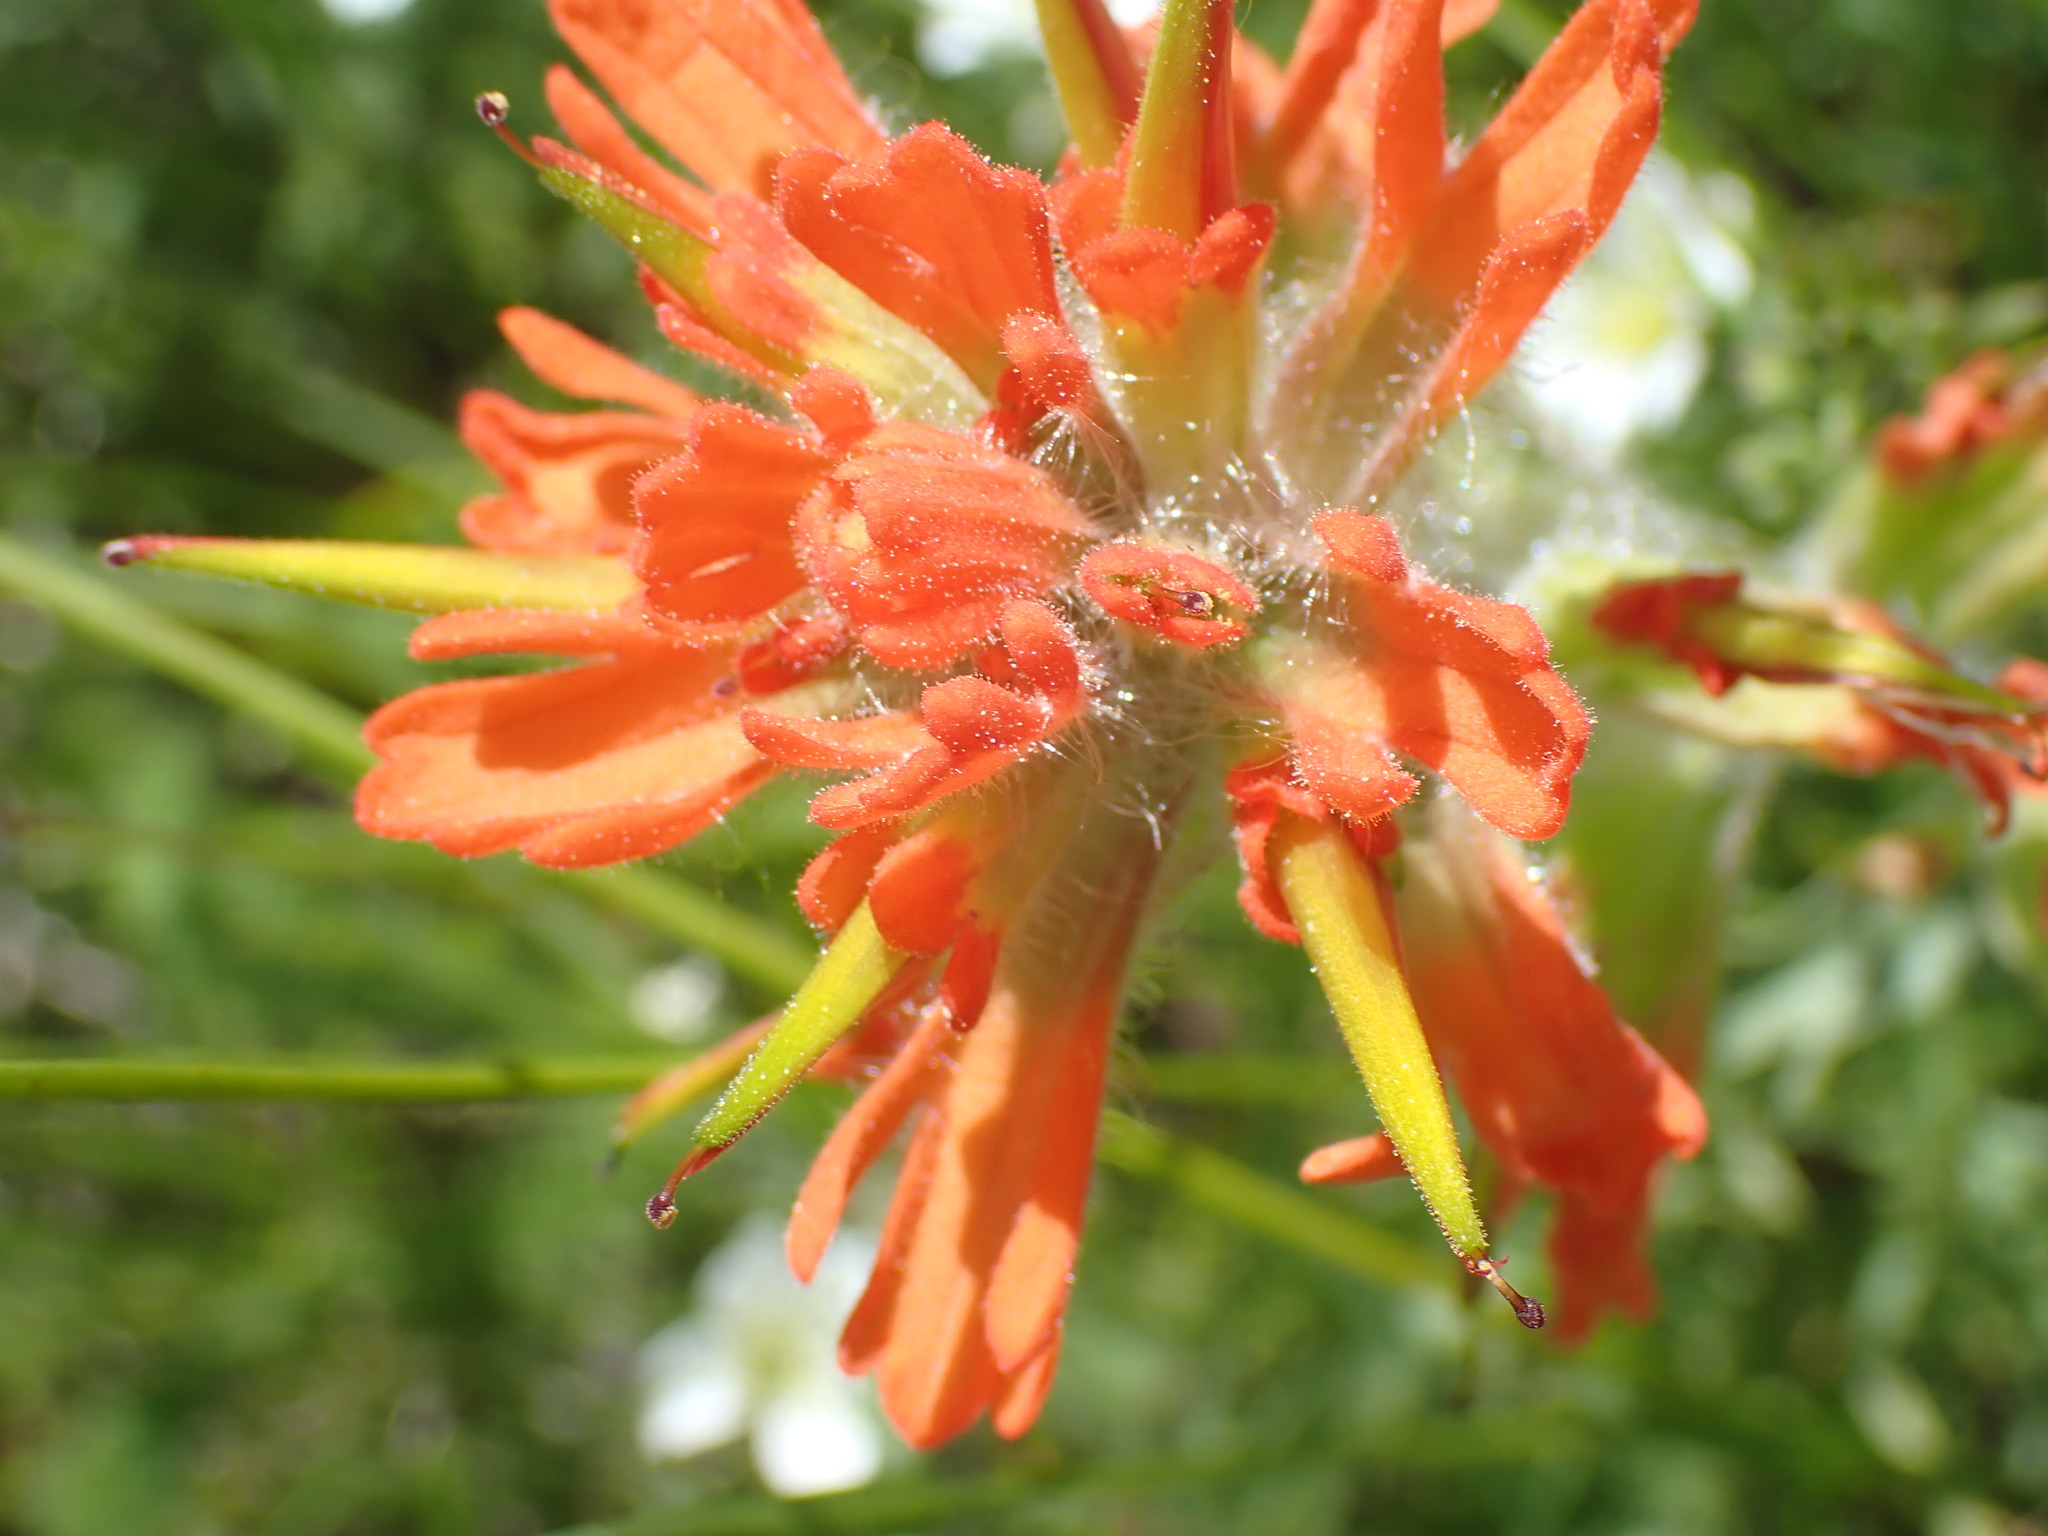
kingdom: Plantae
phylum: Tracheophyta
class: Magnoliopsida
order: Lamiales
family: Orobanchaceae
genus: Castilleja
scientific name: Castilleja hispida
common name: Bristly paintbrush
